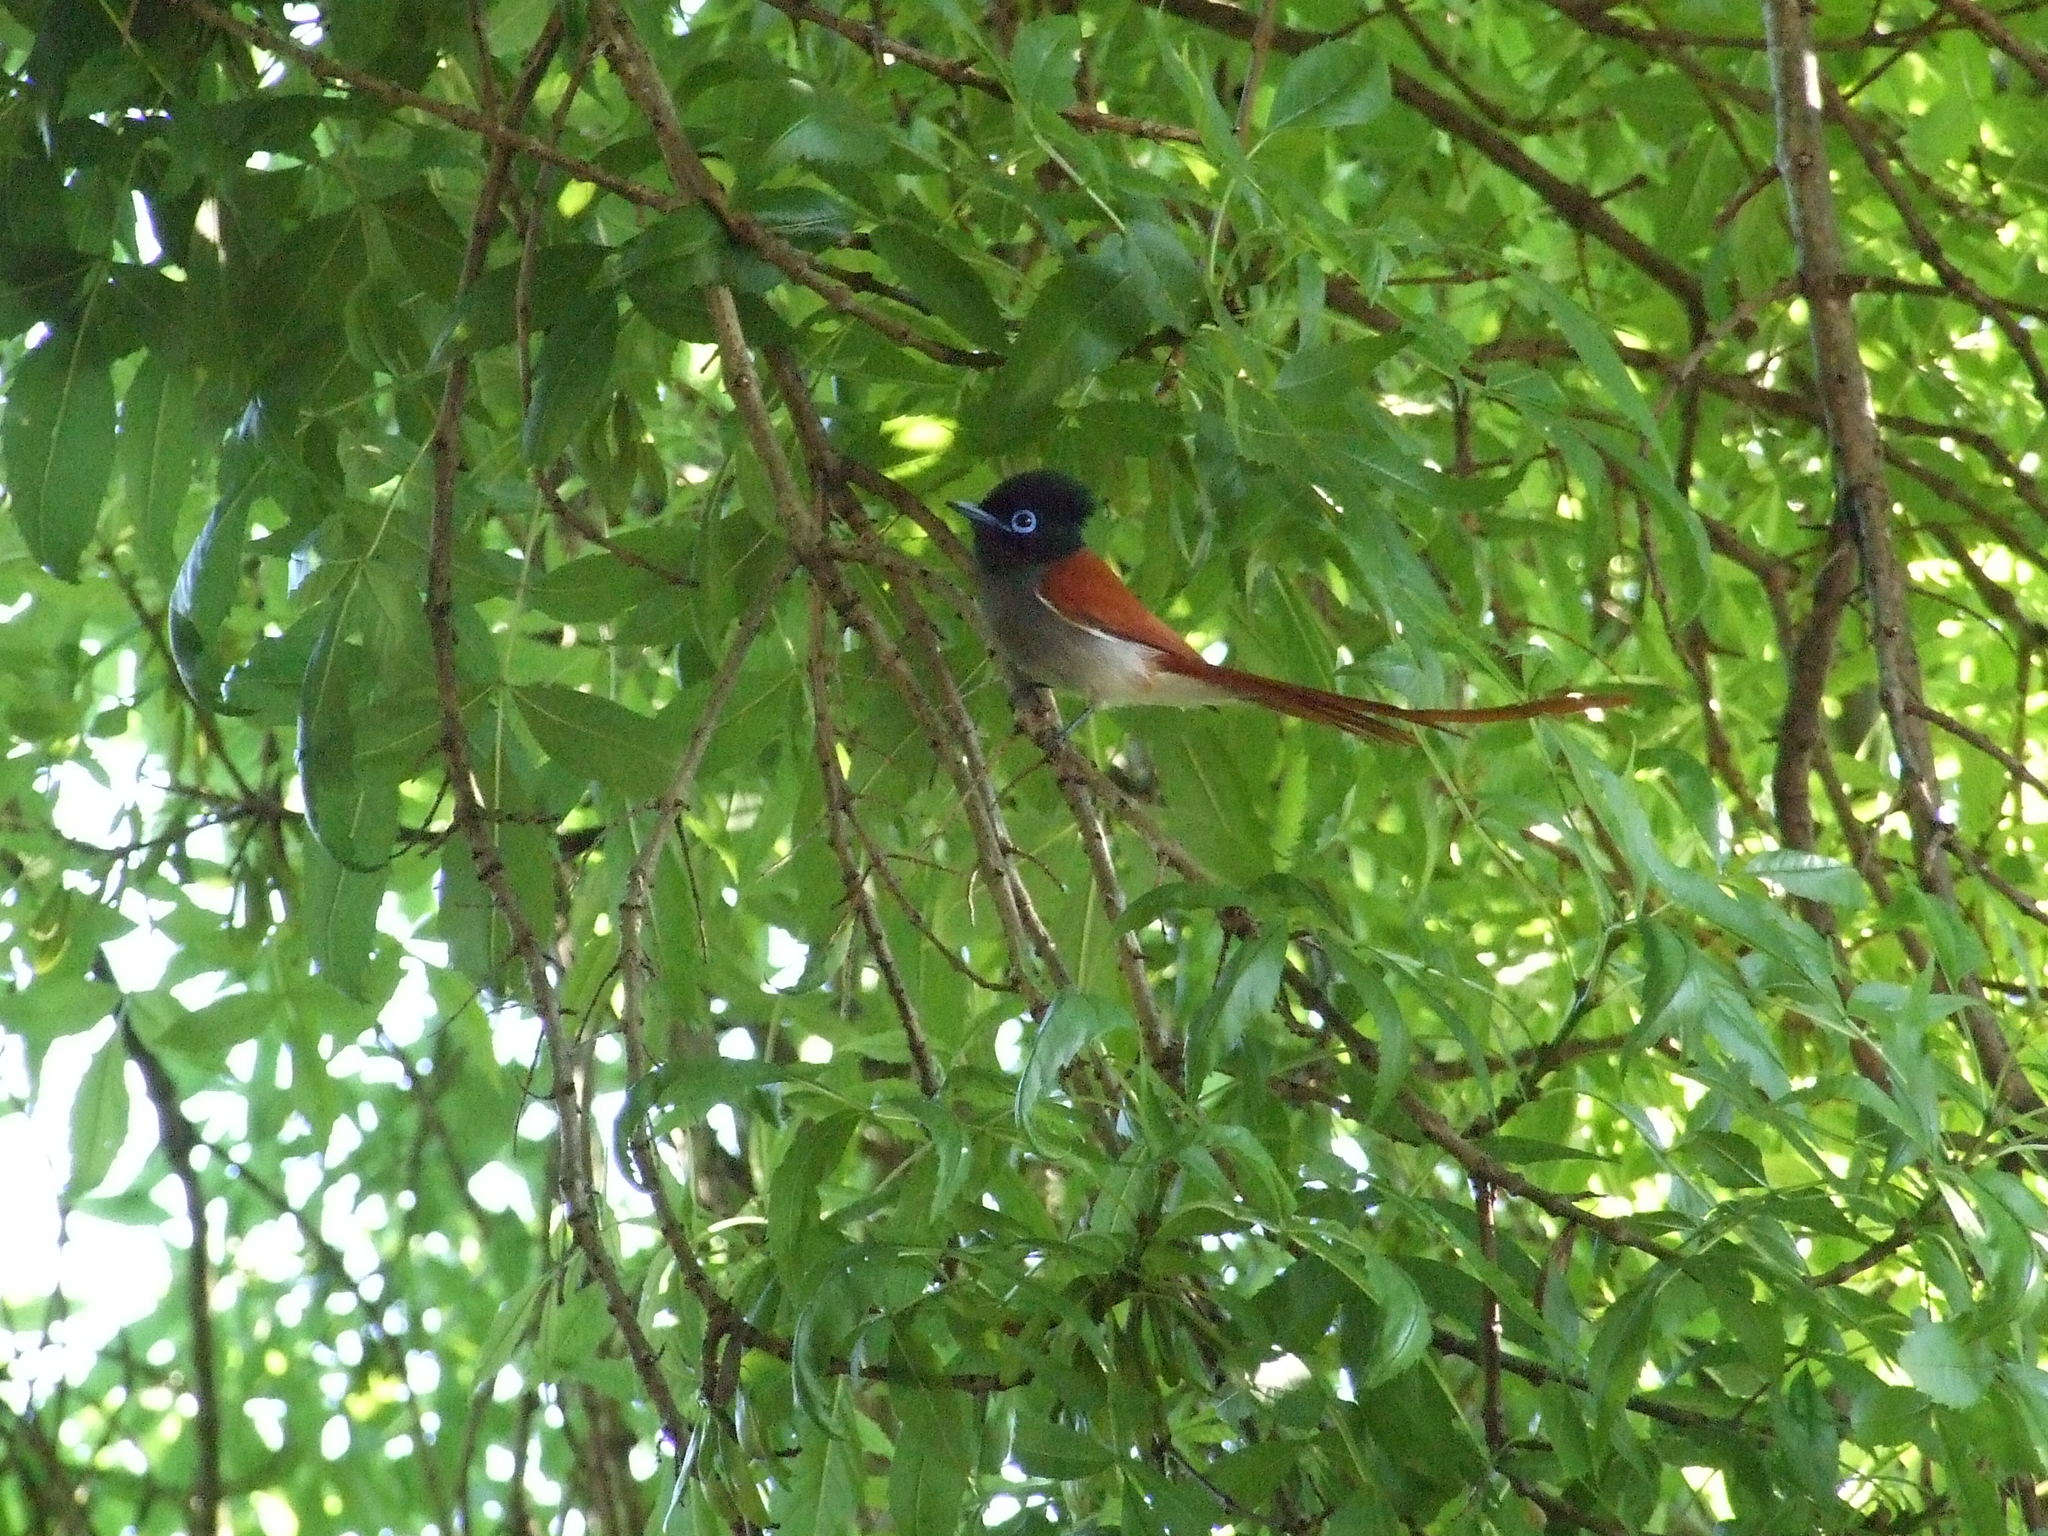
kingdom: Animalia
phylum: Chordata
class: Aves
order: Passeriformes
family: Monarchidae
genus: Terpsiphone
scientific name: Terpsiphone viridis
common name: African paradise flycatcher
